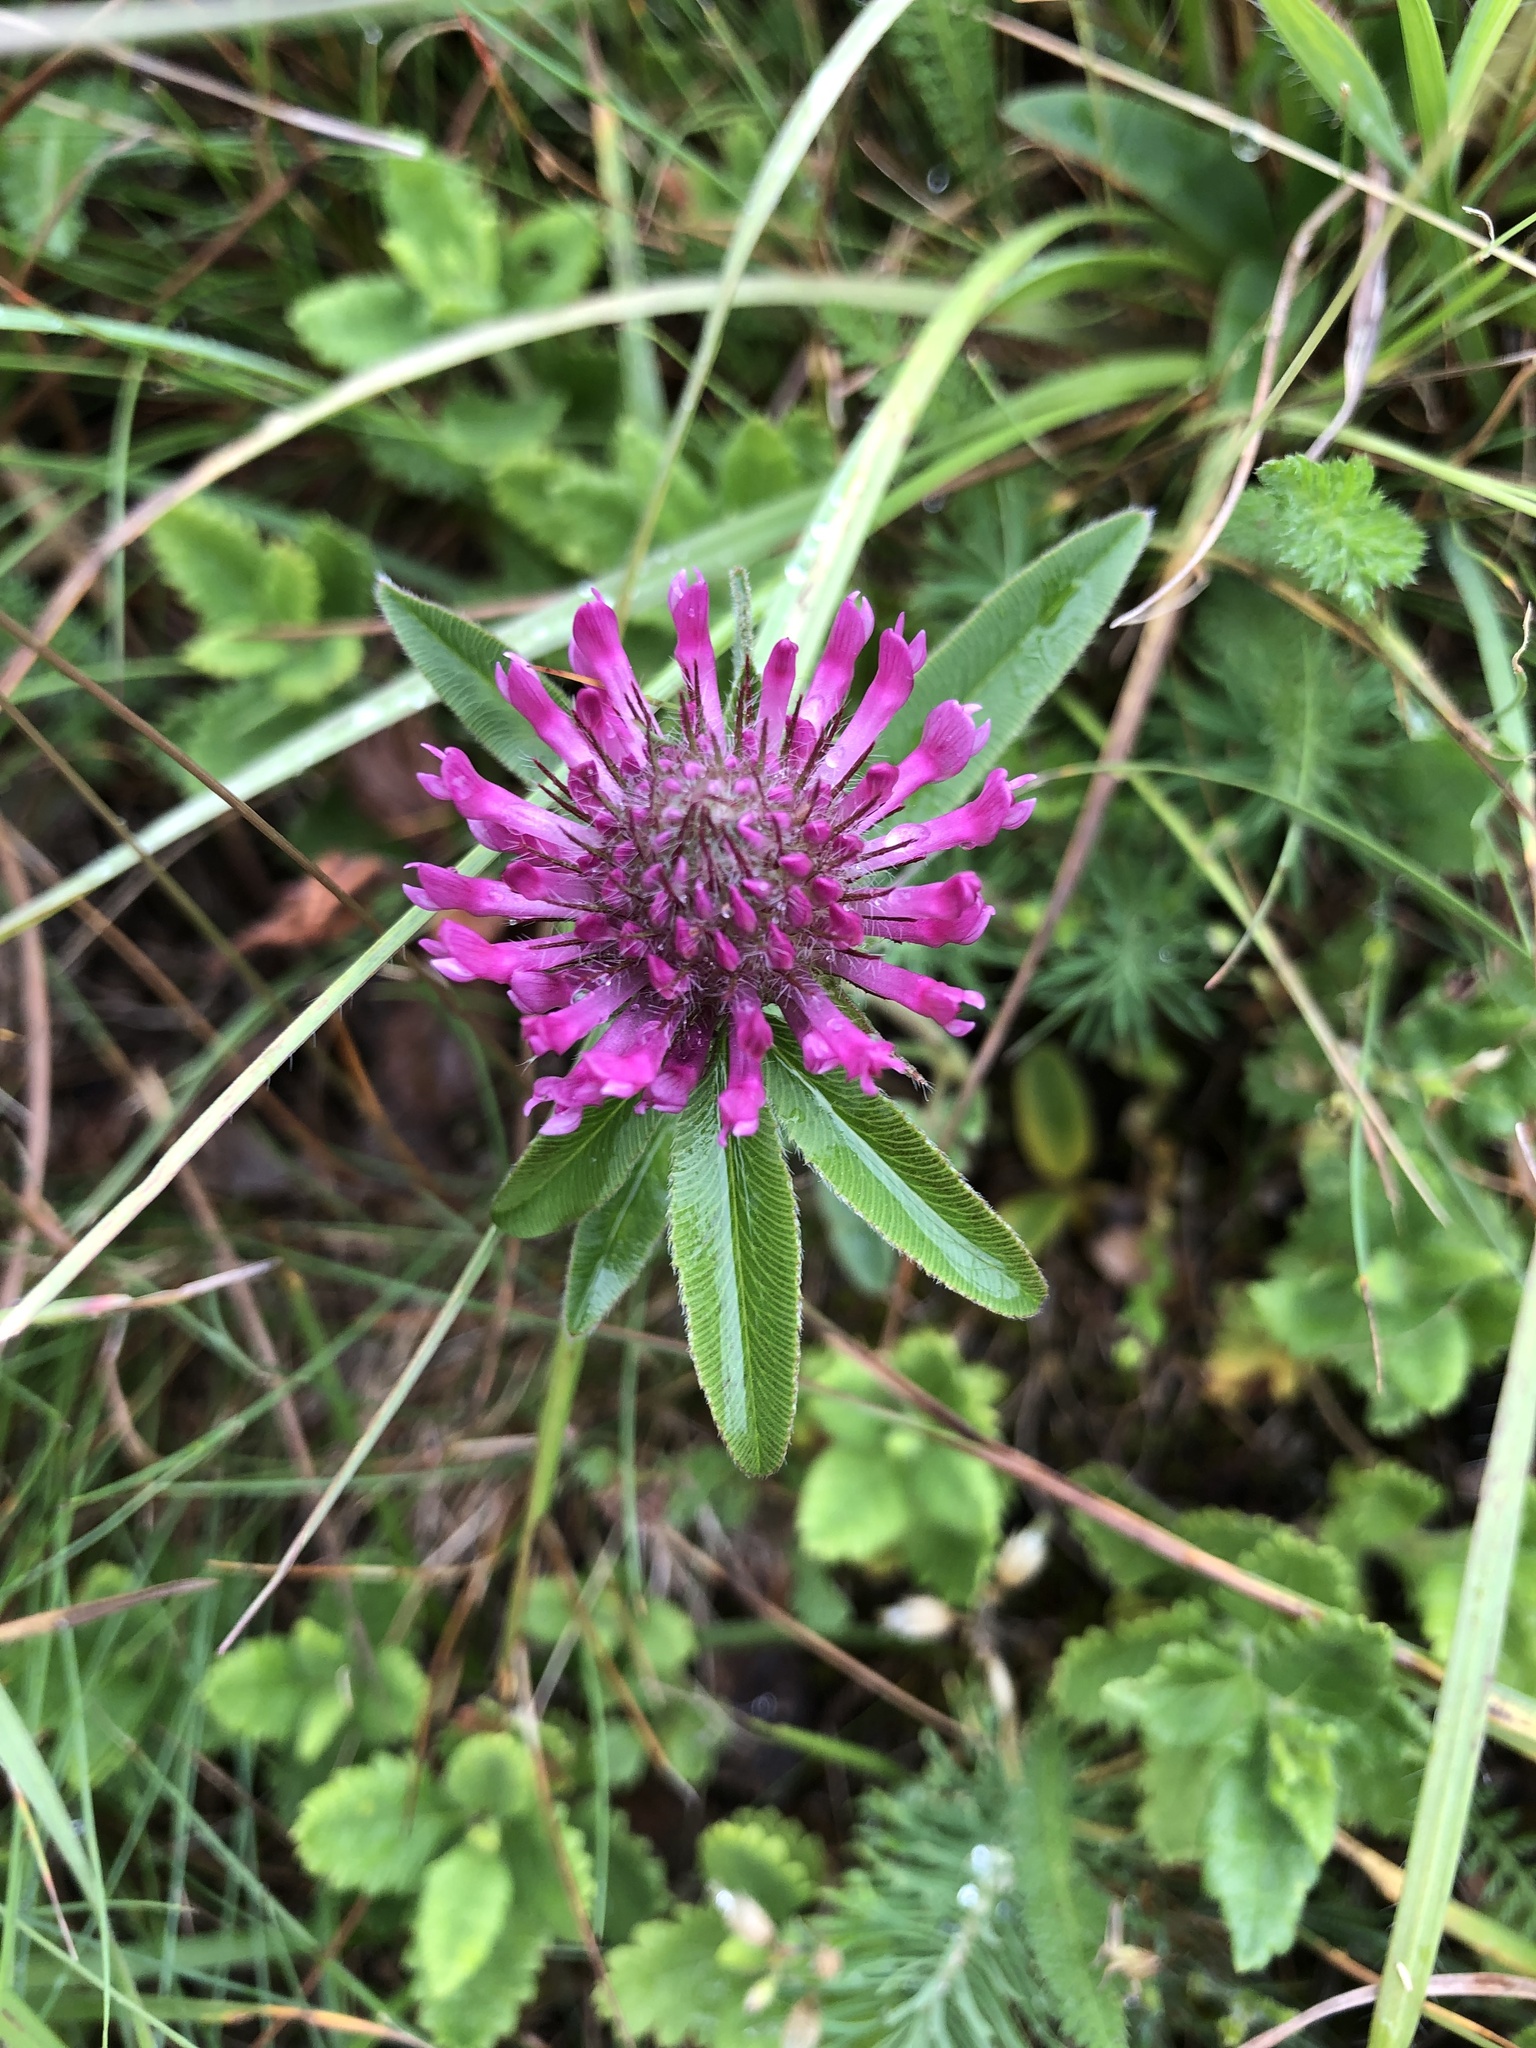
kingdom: Plantae
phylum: Tracheophyta
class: Magnoliopsida
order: Fabales
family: Fabaceae
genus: Trifolium
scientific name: Trifolium alpestre
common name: Owl-head clover
